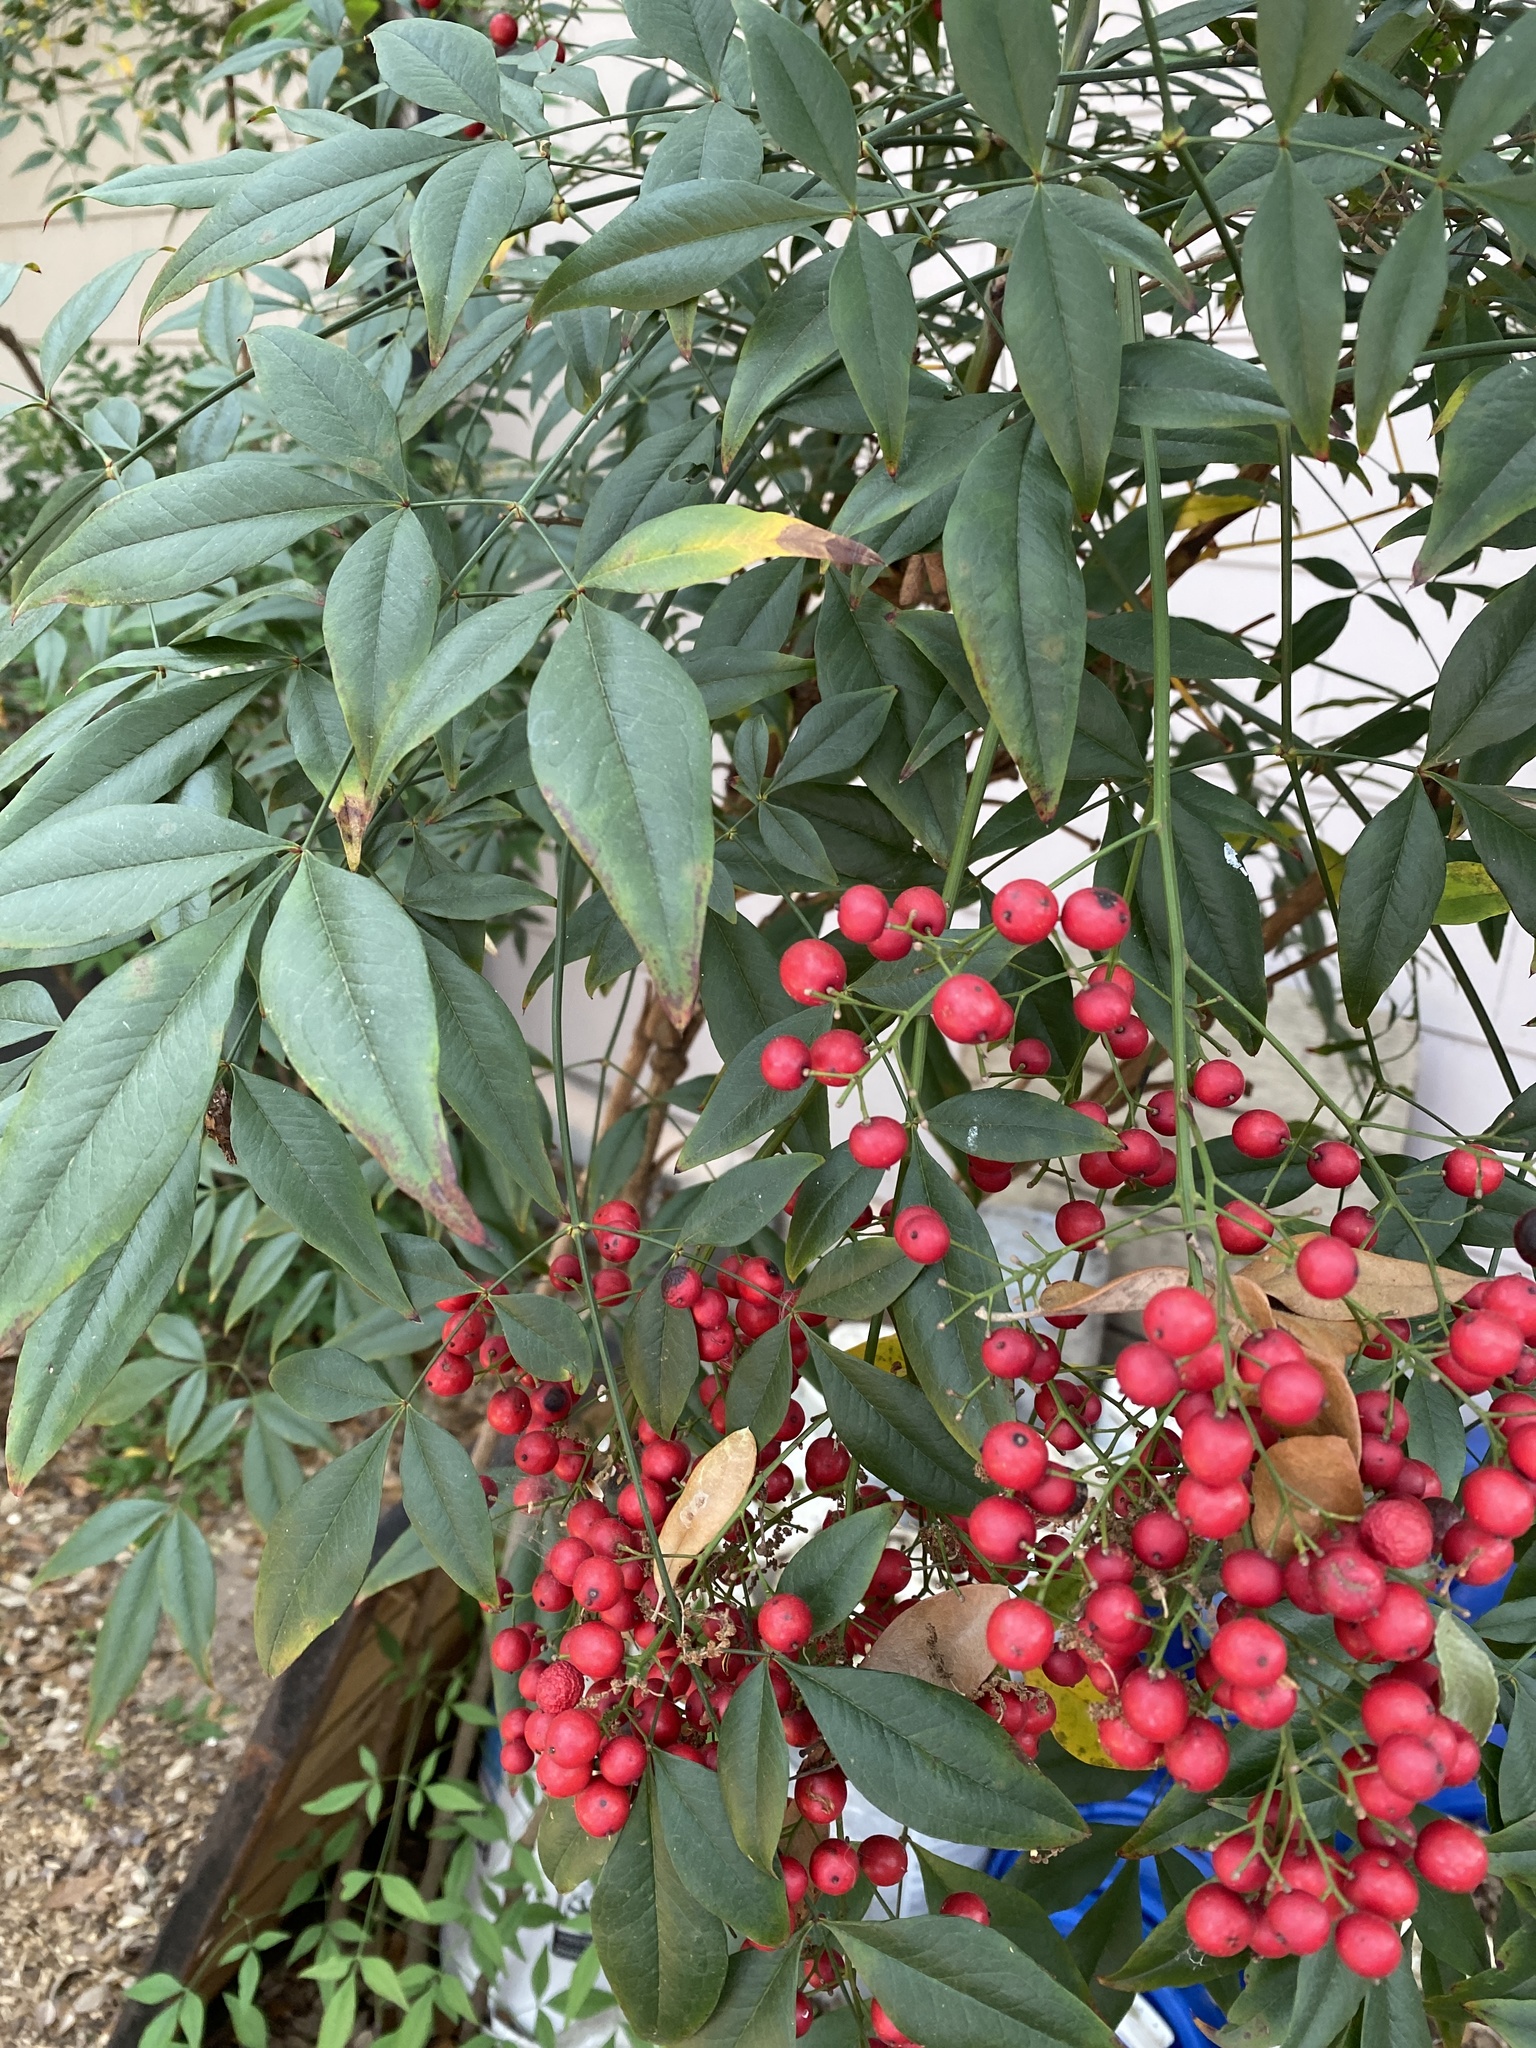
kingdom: Plantae
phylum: Tracheophyta
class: Magnoliopsida
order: Ranunculales
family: Berberidaceae
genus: Nandina
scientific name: Nandina domestica
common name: Sacred bamboo
